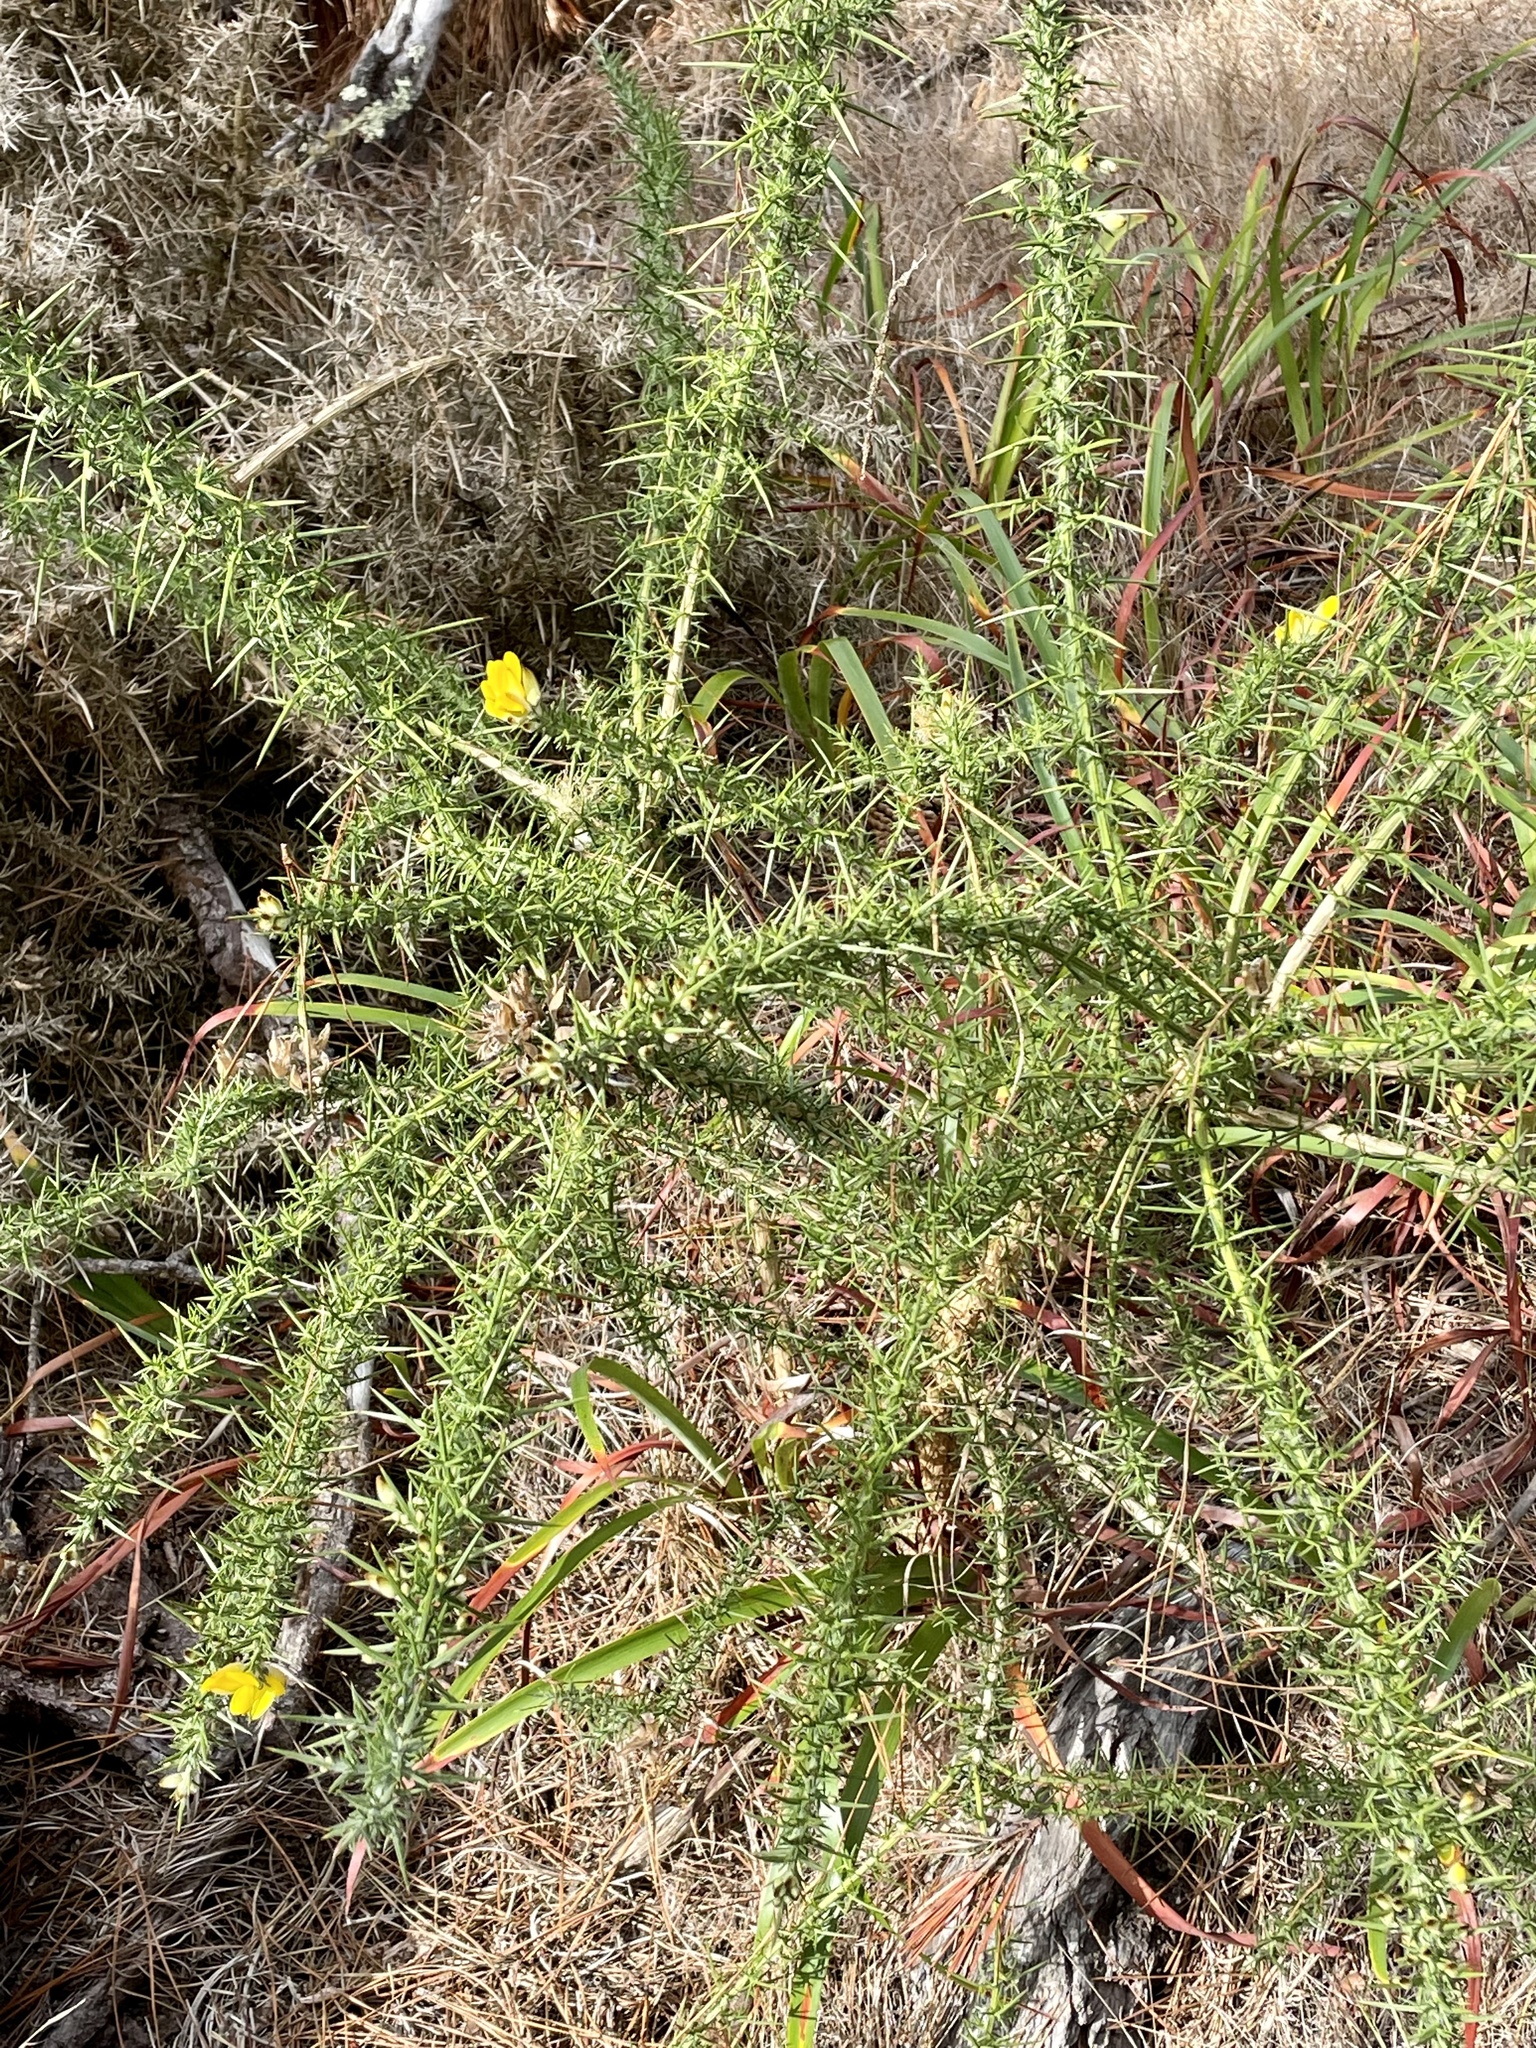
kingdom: Plantae
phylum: Tracheophyta
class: Magnoliopsida
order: Fabales
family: Fabaceae
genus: Ulex
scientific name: Ulex europaeus
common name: Common gorse
